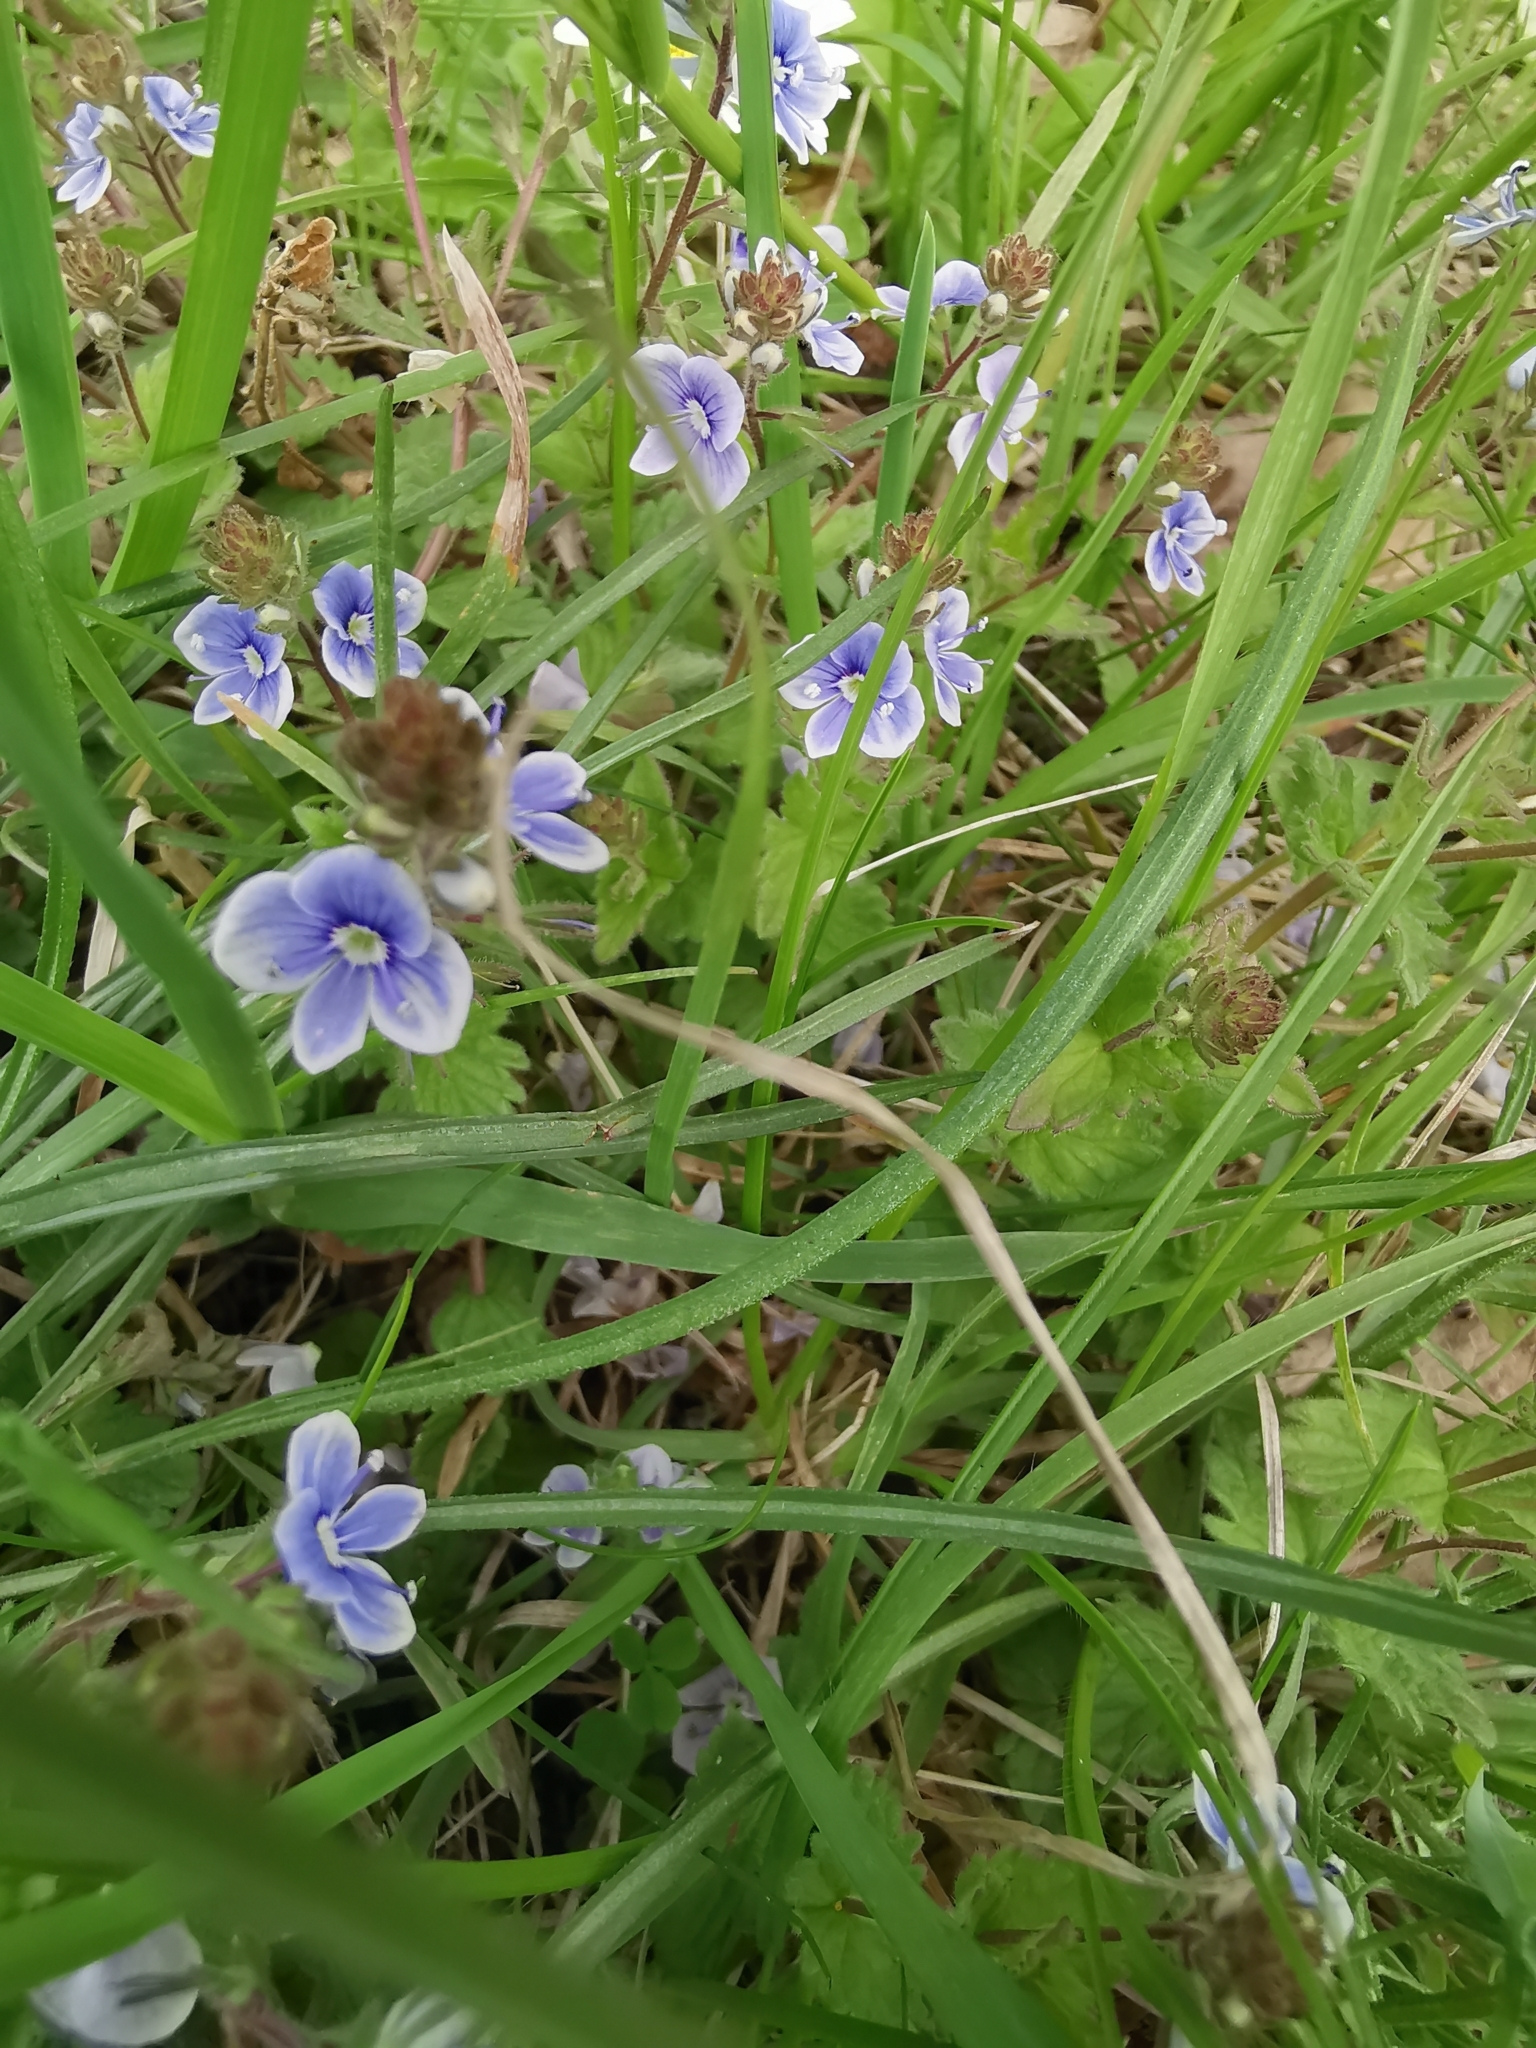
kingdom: Plantae
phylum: Tracheophyta
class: Magnoliopsida
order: Lamiales
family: Plantaginaceae
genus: Veronica
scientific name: Veronica vindobonensis
